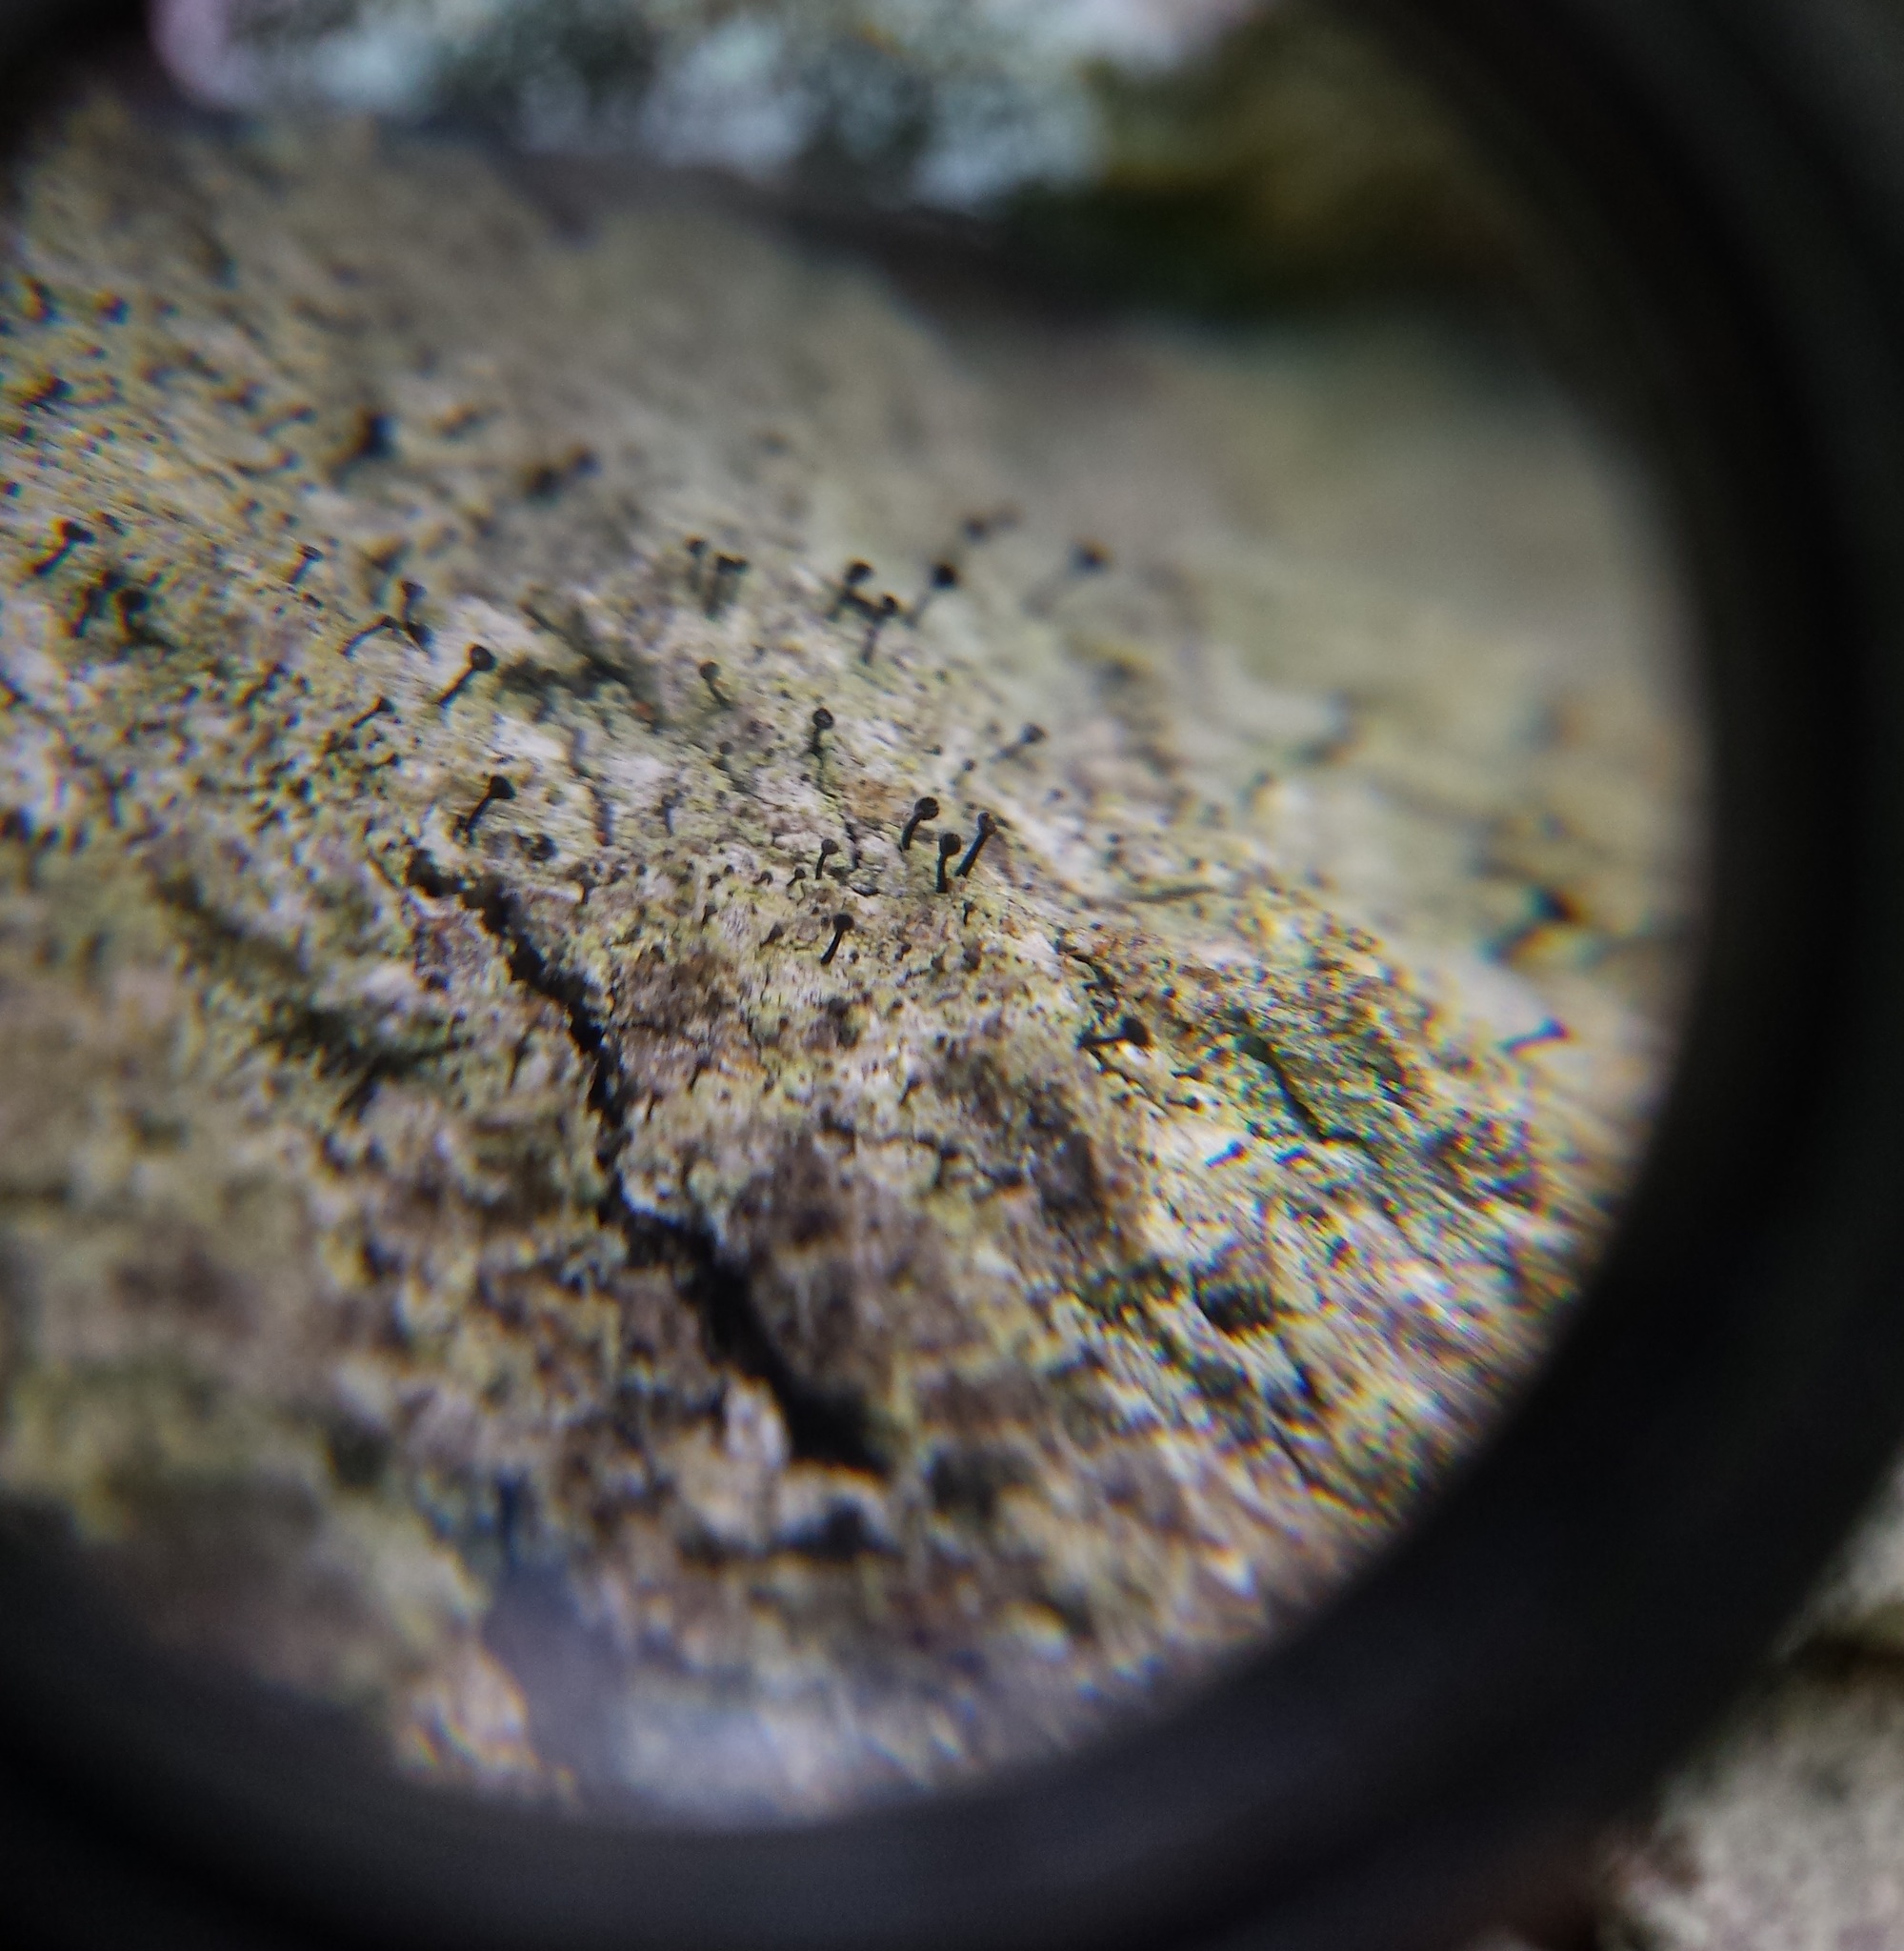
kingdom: Fungi
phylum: Ascomycota
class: Lecanoromycetes
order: Caliciales
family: Caliciaceae
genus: Calicium
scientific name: Calicium viride
